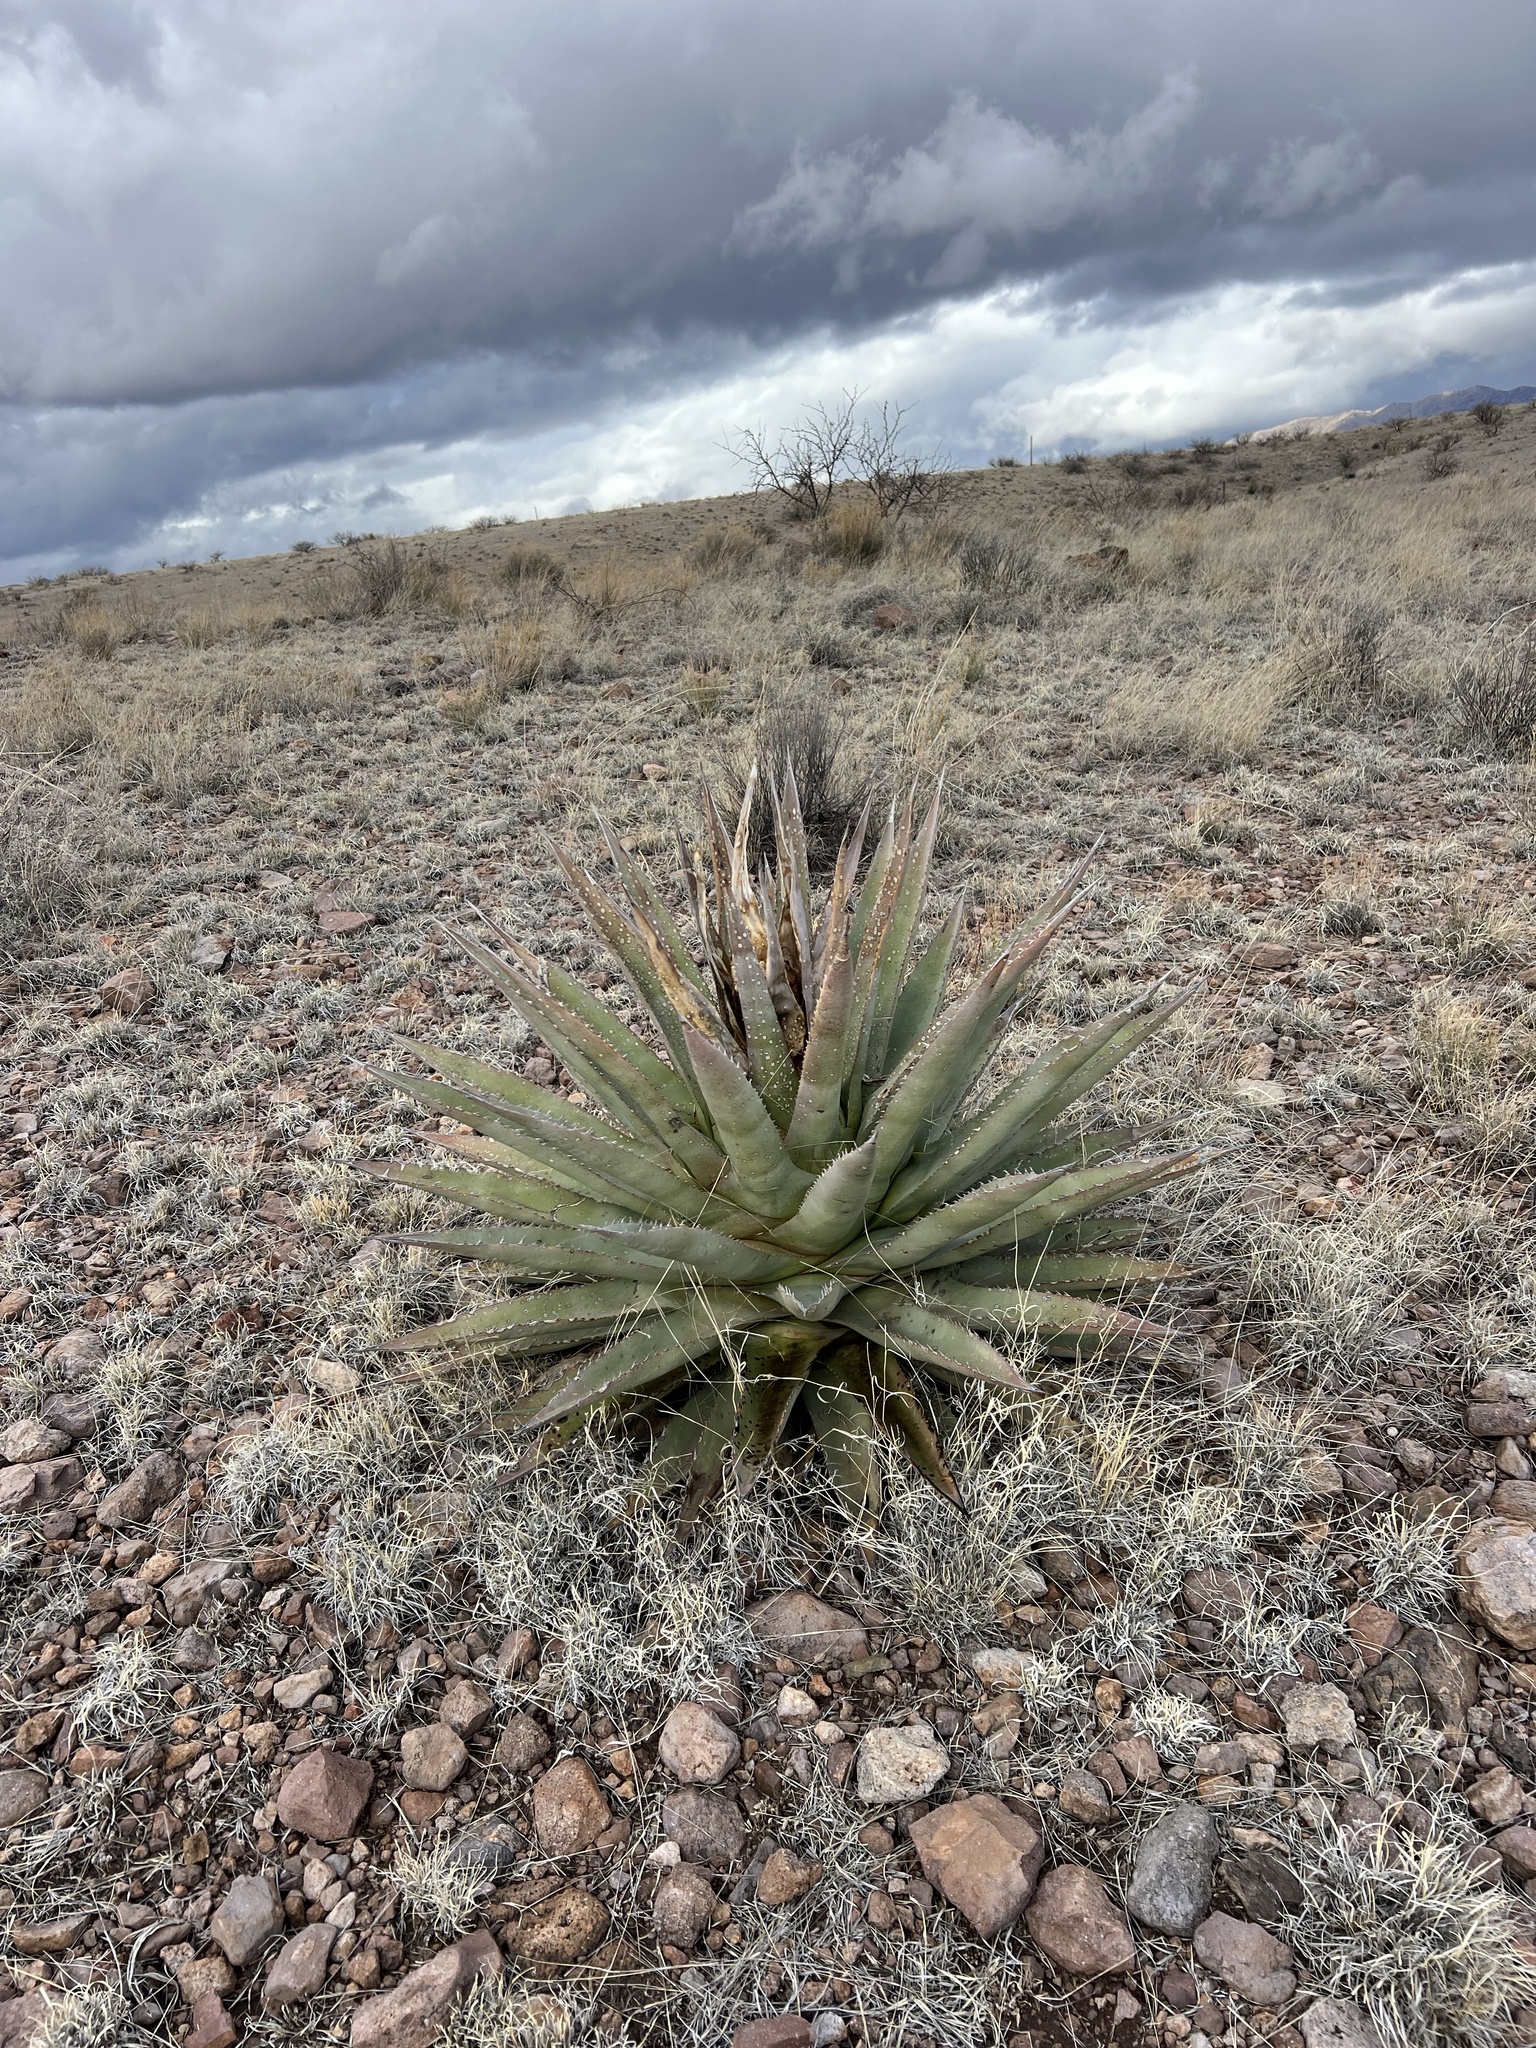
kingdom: Plantae
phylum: Tracheophyta
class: Liliopsida
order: Asparagales
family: Asparagaceae
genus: Agave
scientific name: Agave palmeri
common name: Palmer agave
